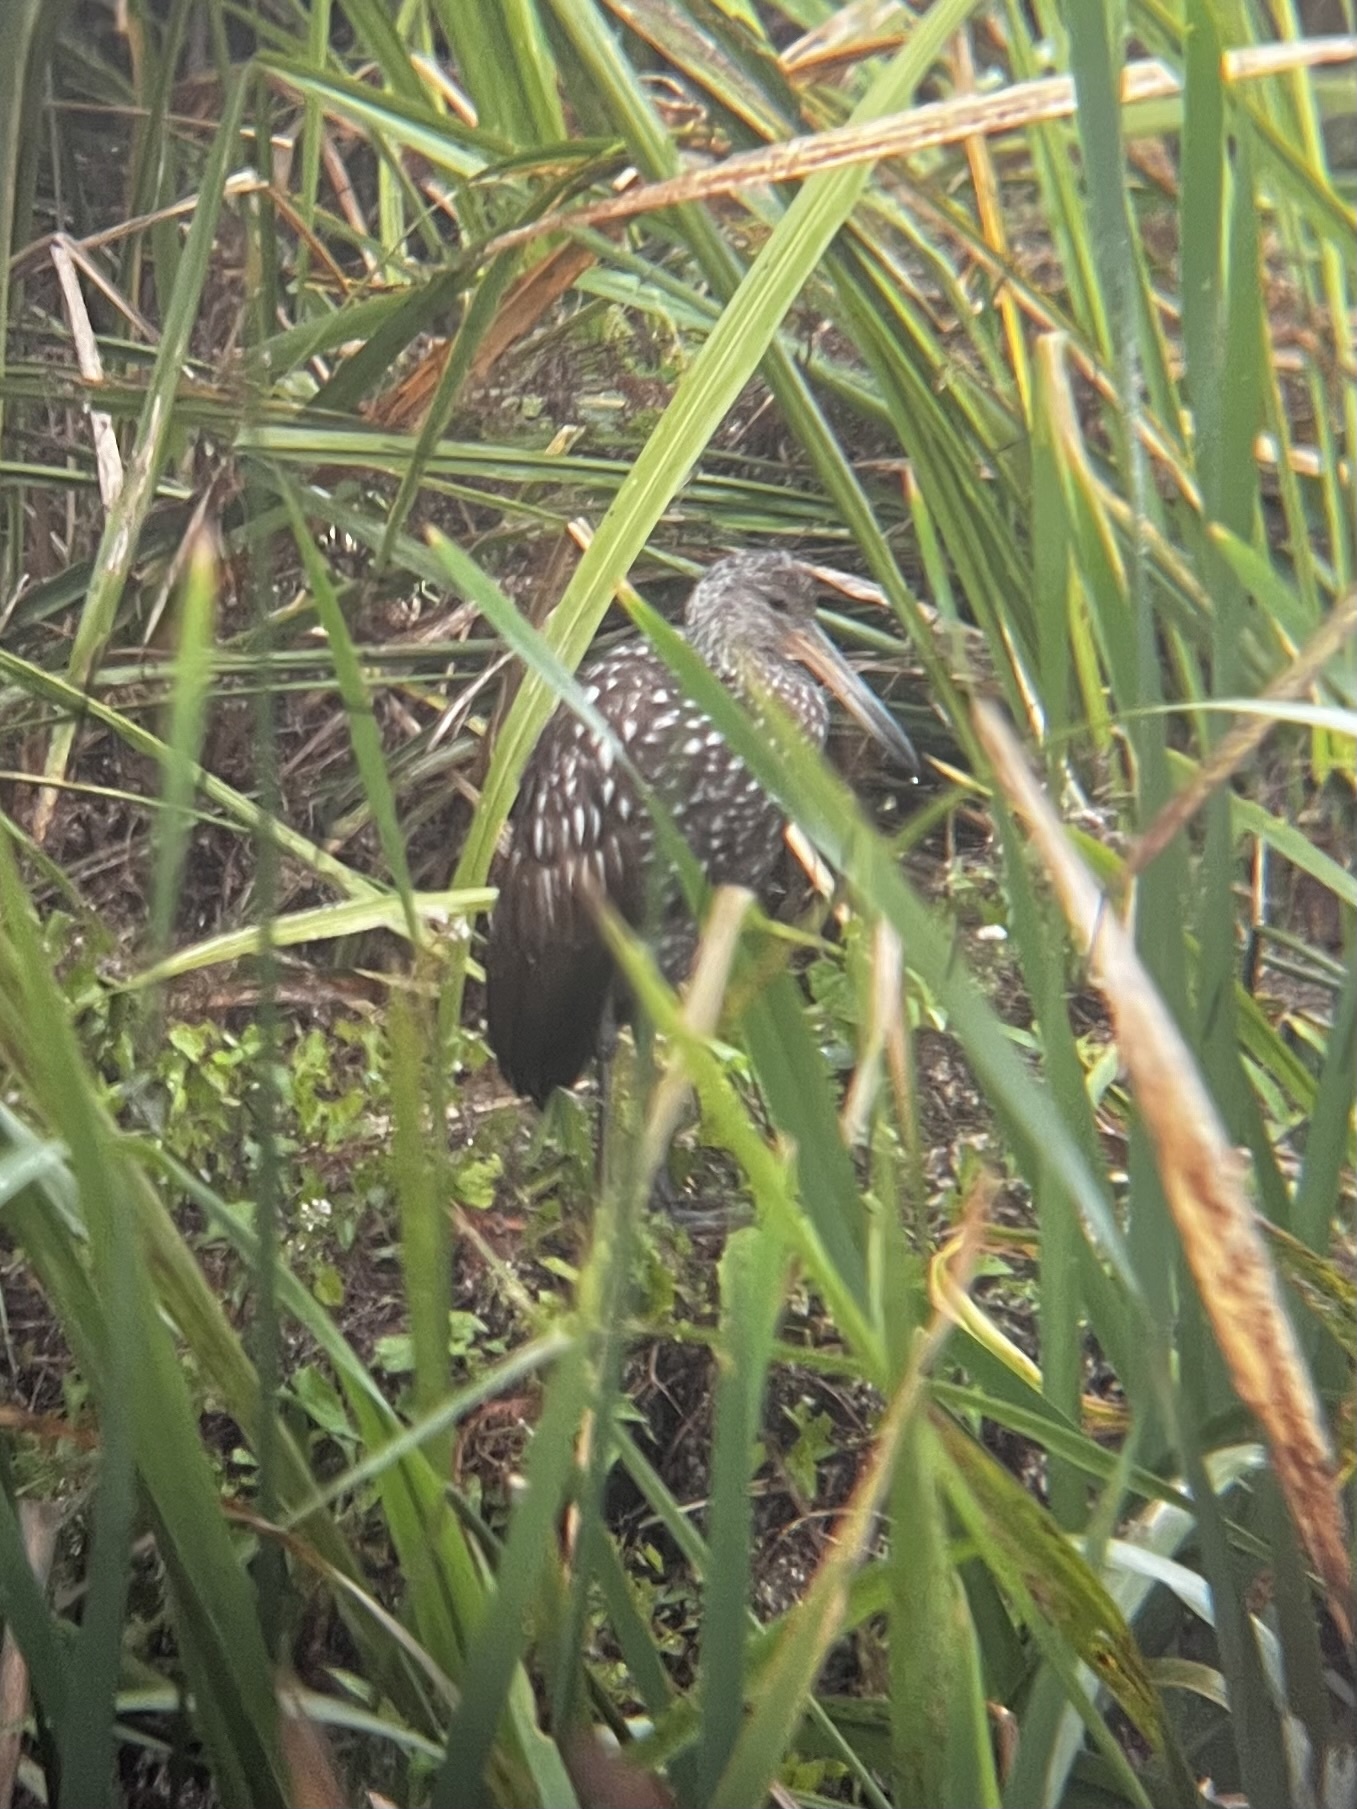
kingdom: Animalia
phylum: Chordata
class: Aves
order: Gruiformes
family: Aramidae
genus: Aramus
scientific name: Aramus guarauna
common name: Limpkin
